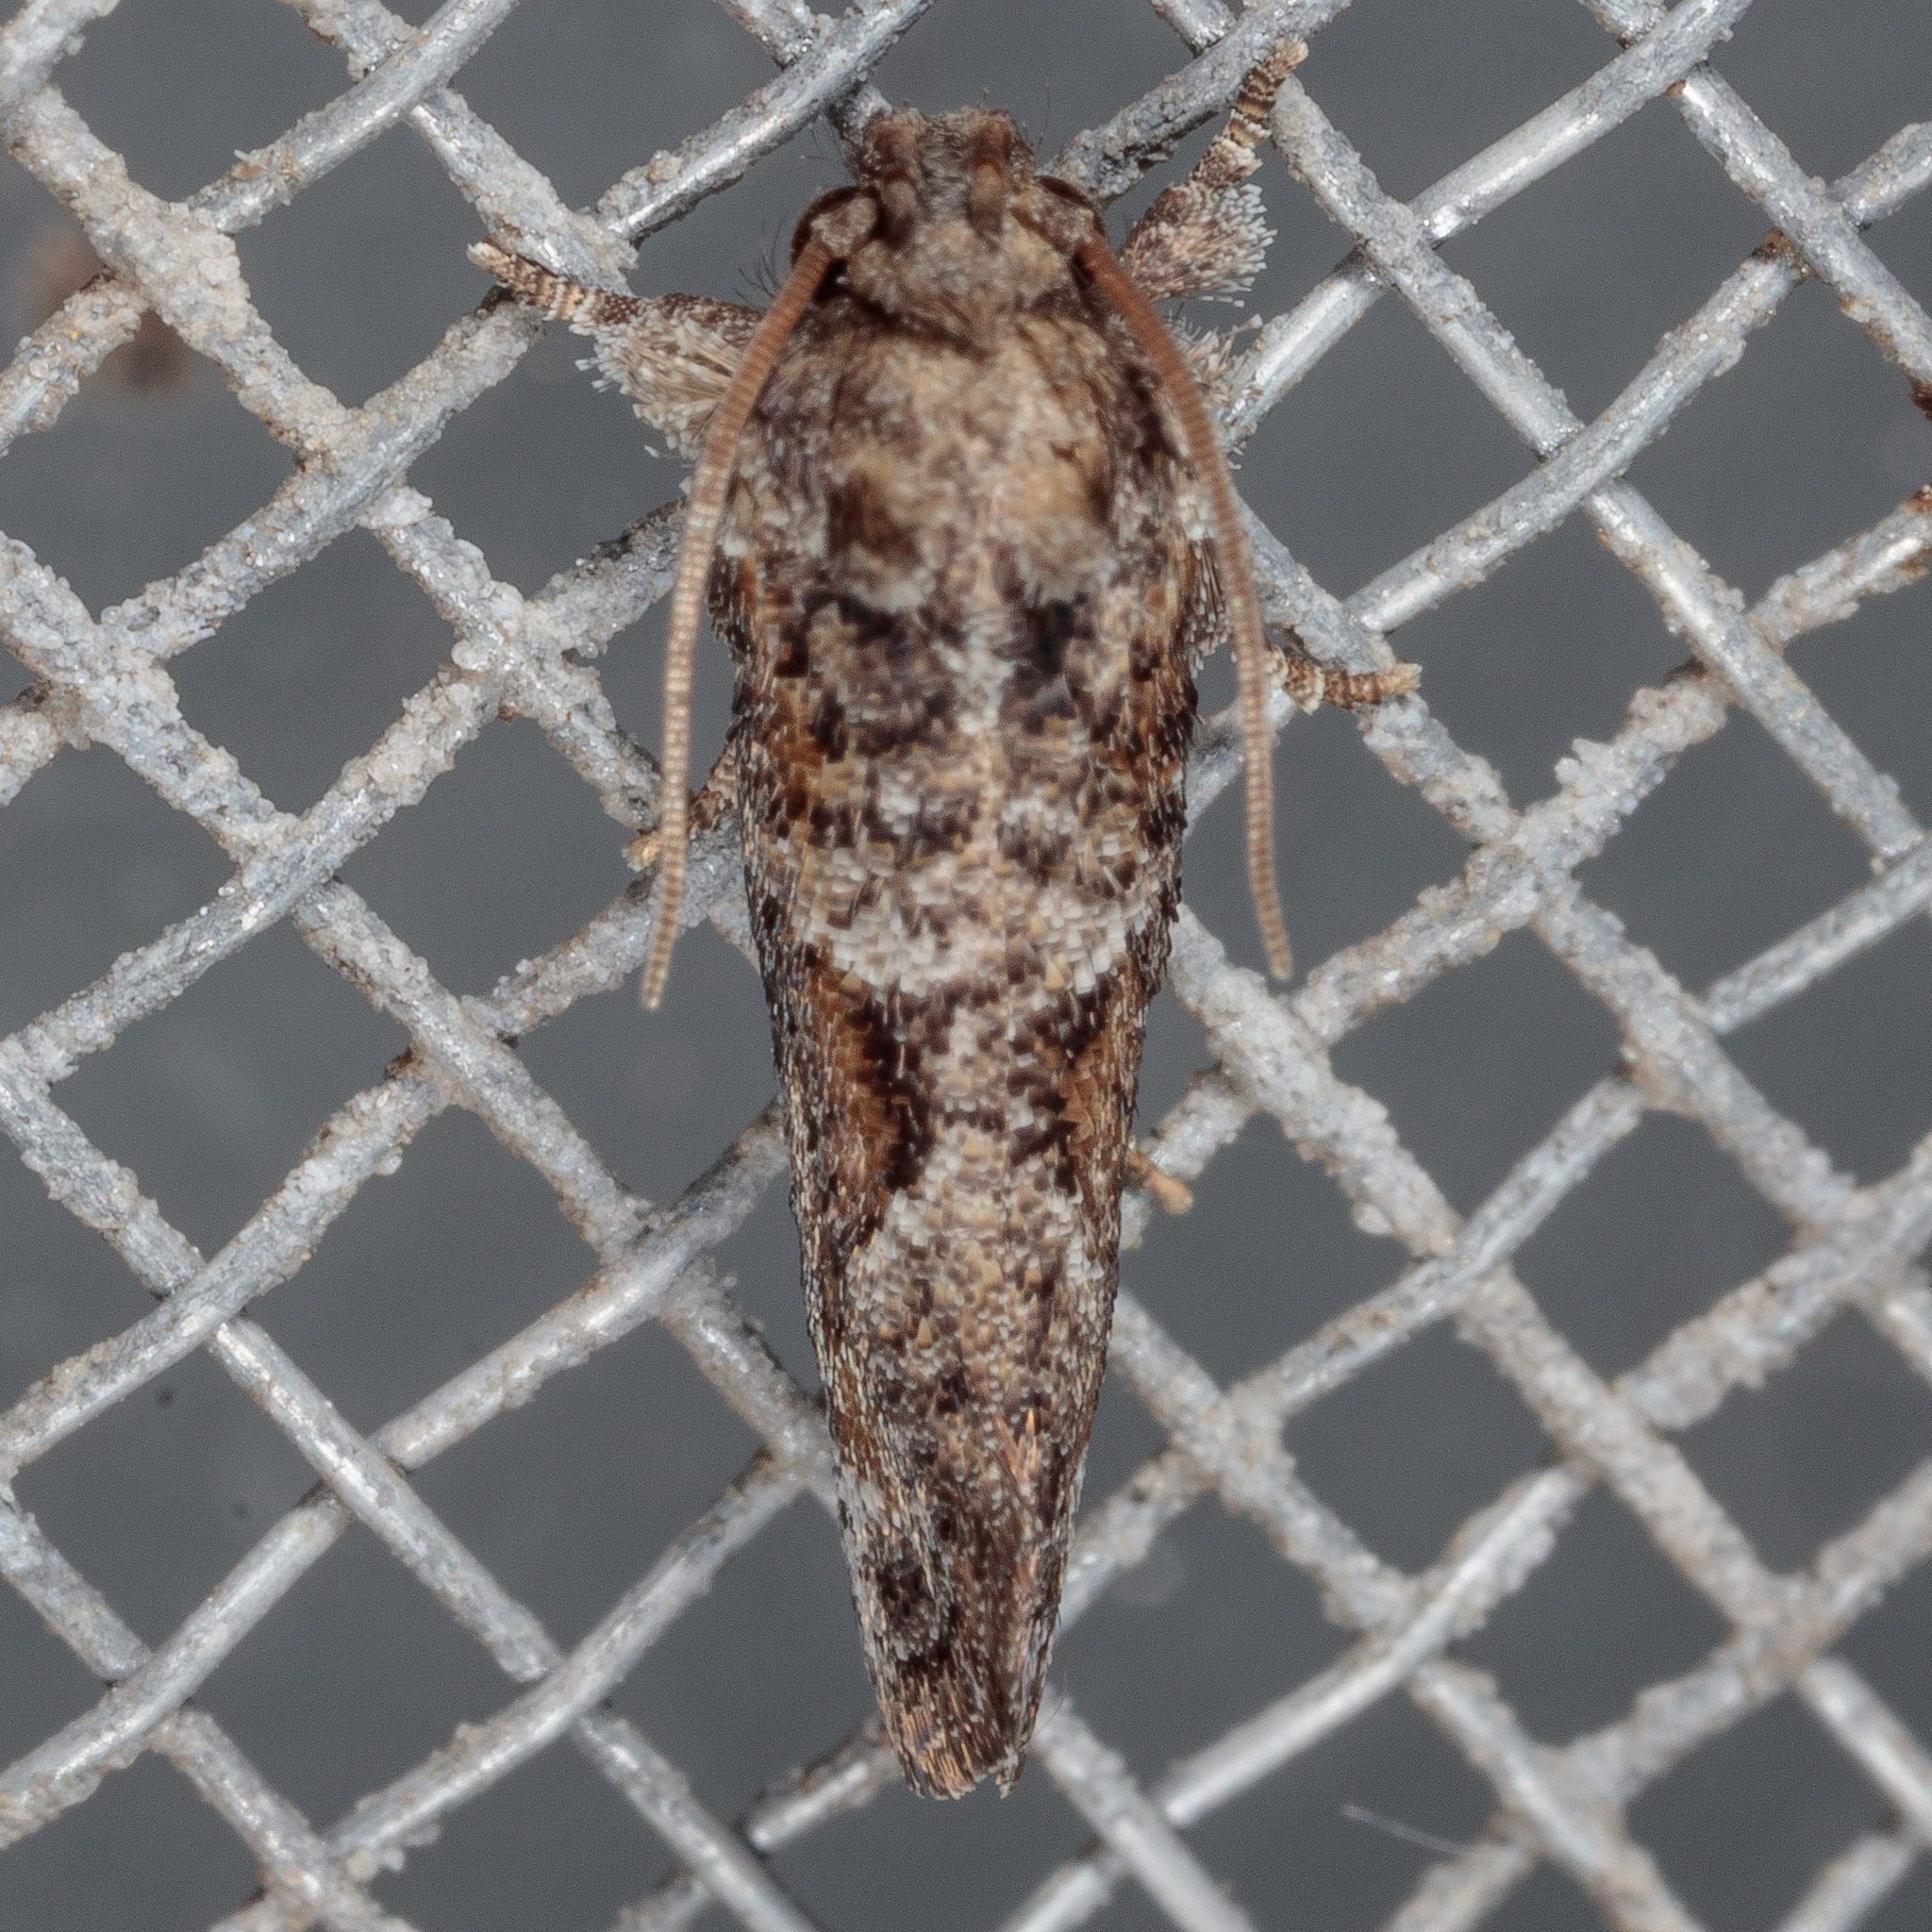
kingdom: Animalia
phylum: Arthropoda
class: Insecta
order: Lepidoptera
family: Tineidae
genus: Acrolophus
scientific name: Acrolophus piger
